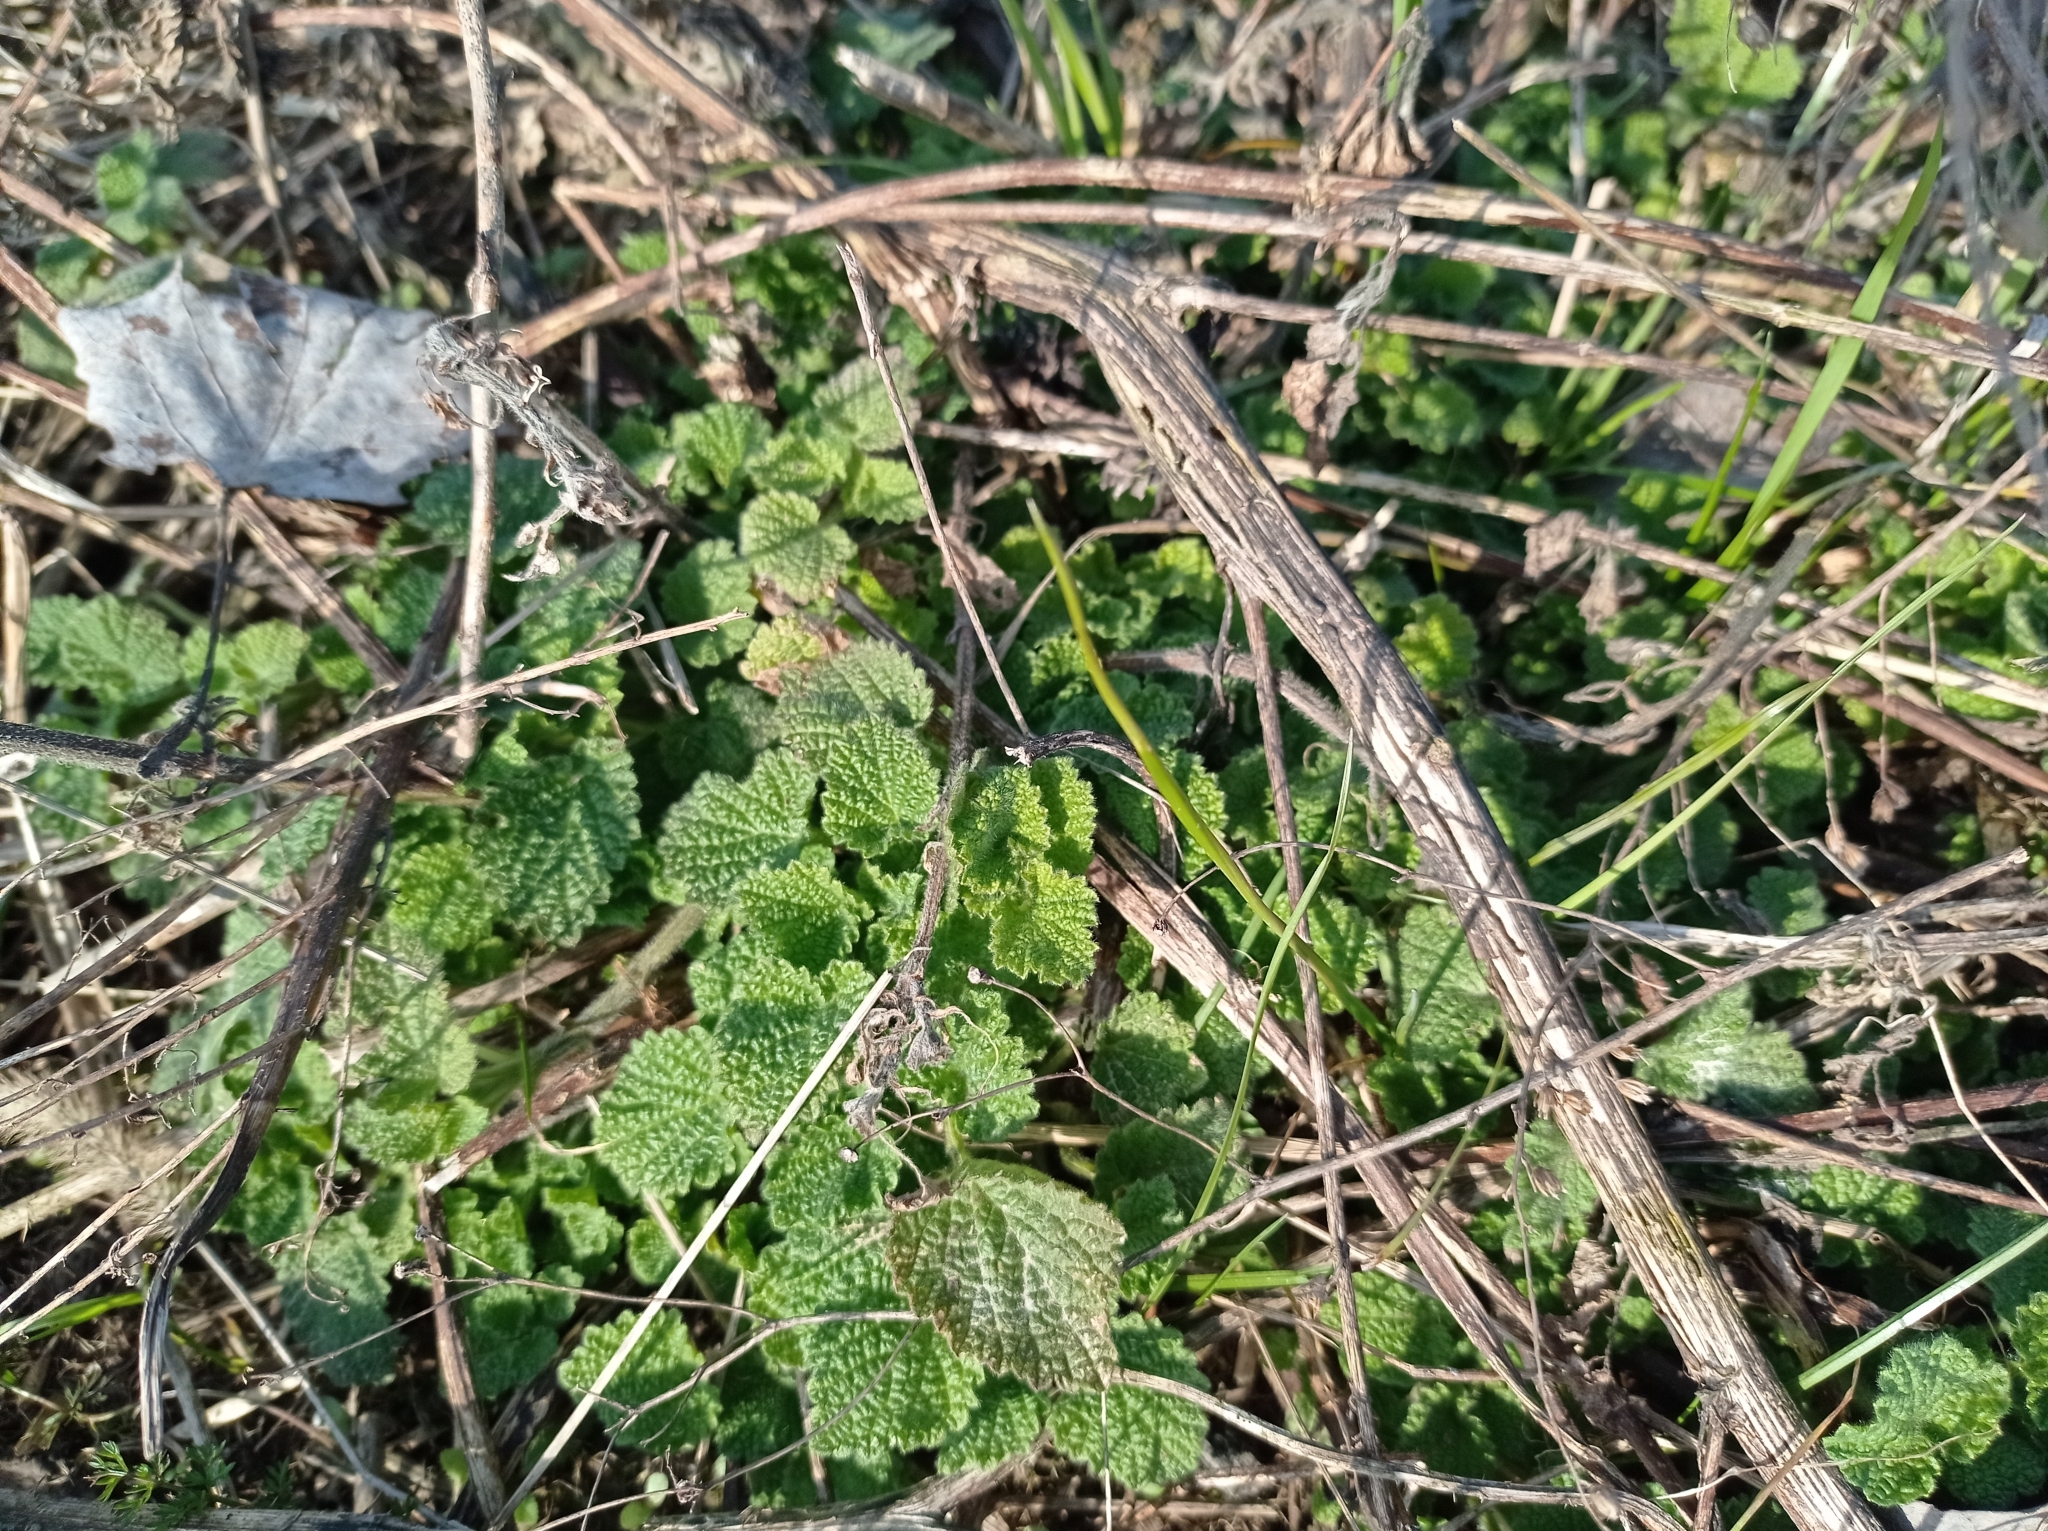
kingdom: Plantae
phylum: Tracheophyta
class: Magnoliopsida
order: Lamiales
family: Lamiaceae
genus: Ballota
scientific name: Ballota nigra
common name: Black horehound
